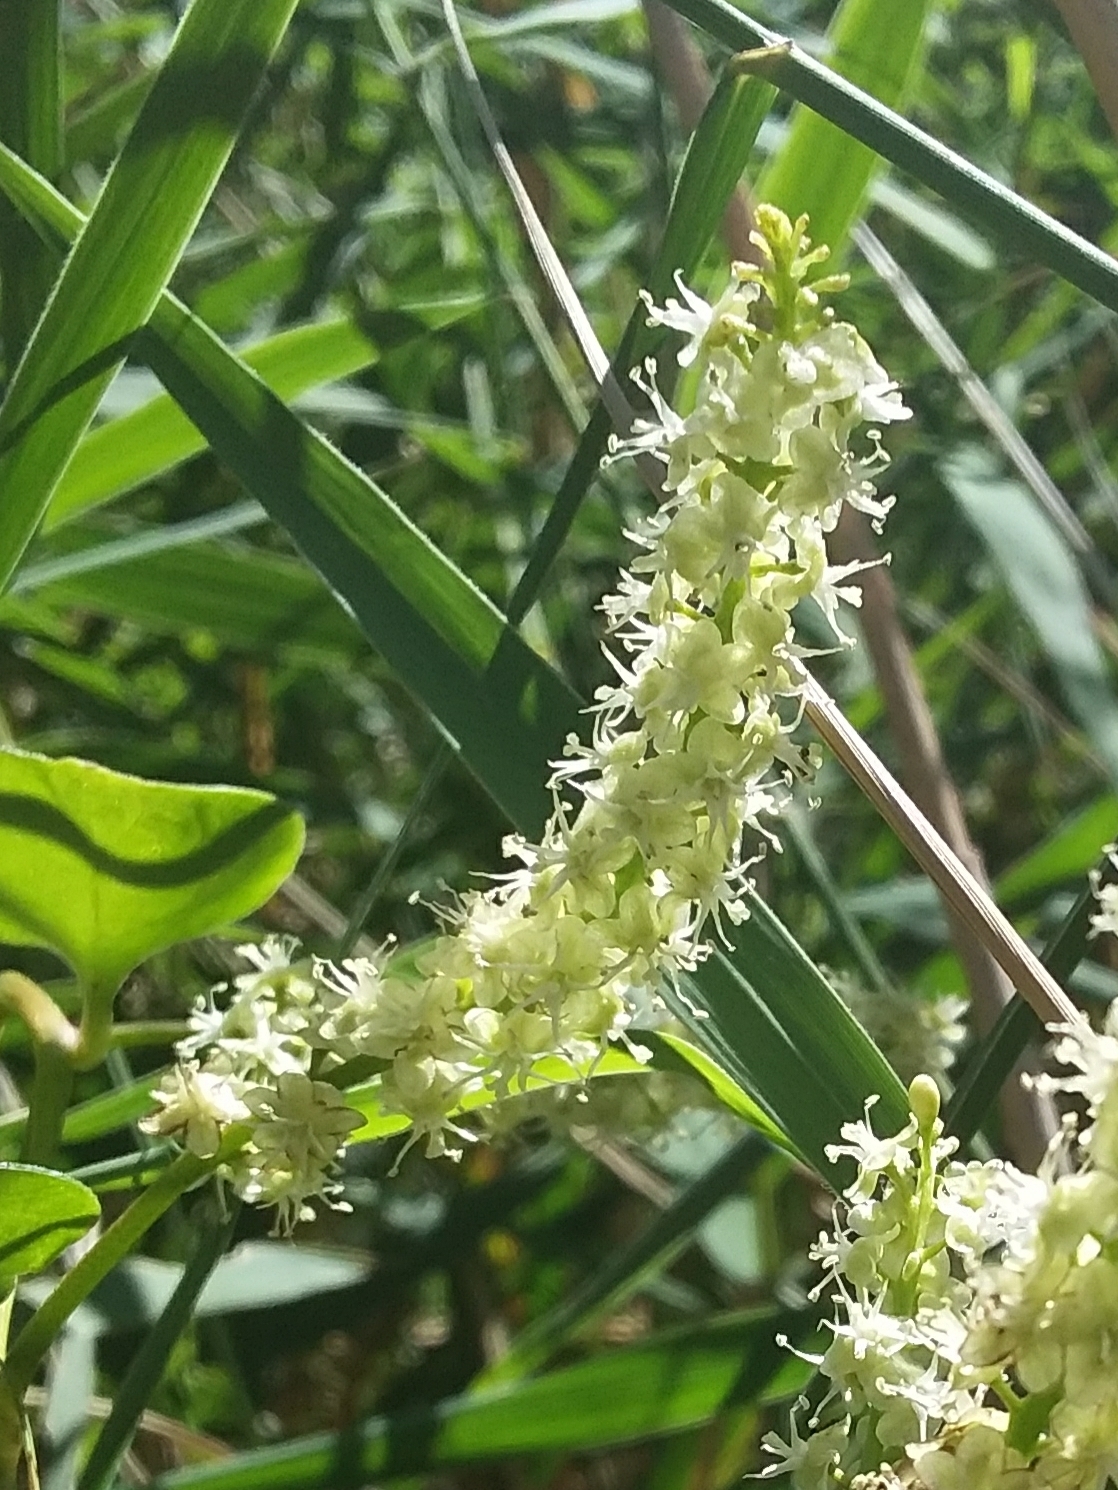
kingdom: Plantae
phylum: Tracheophyta
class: Magnoliopsida
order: Caryophyllales
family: Basellaceae
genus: Anredera
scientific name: Anredera cordifolia
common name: Heartleaf madeiravine
